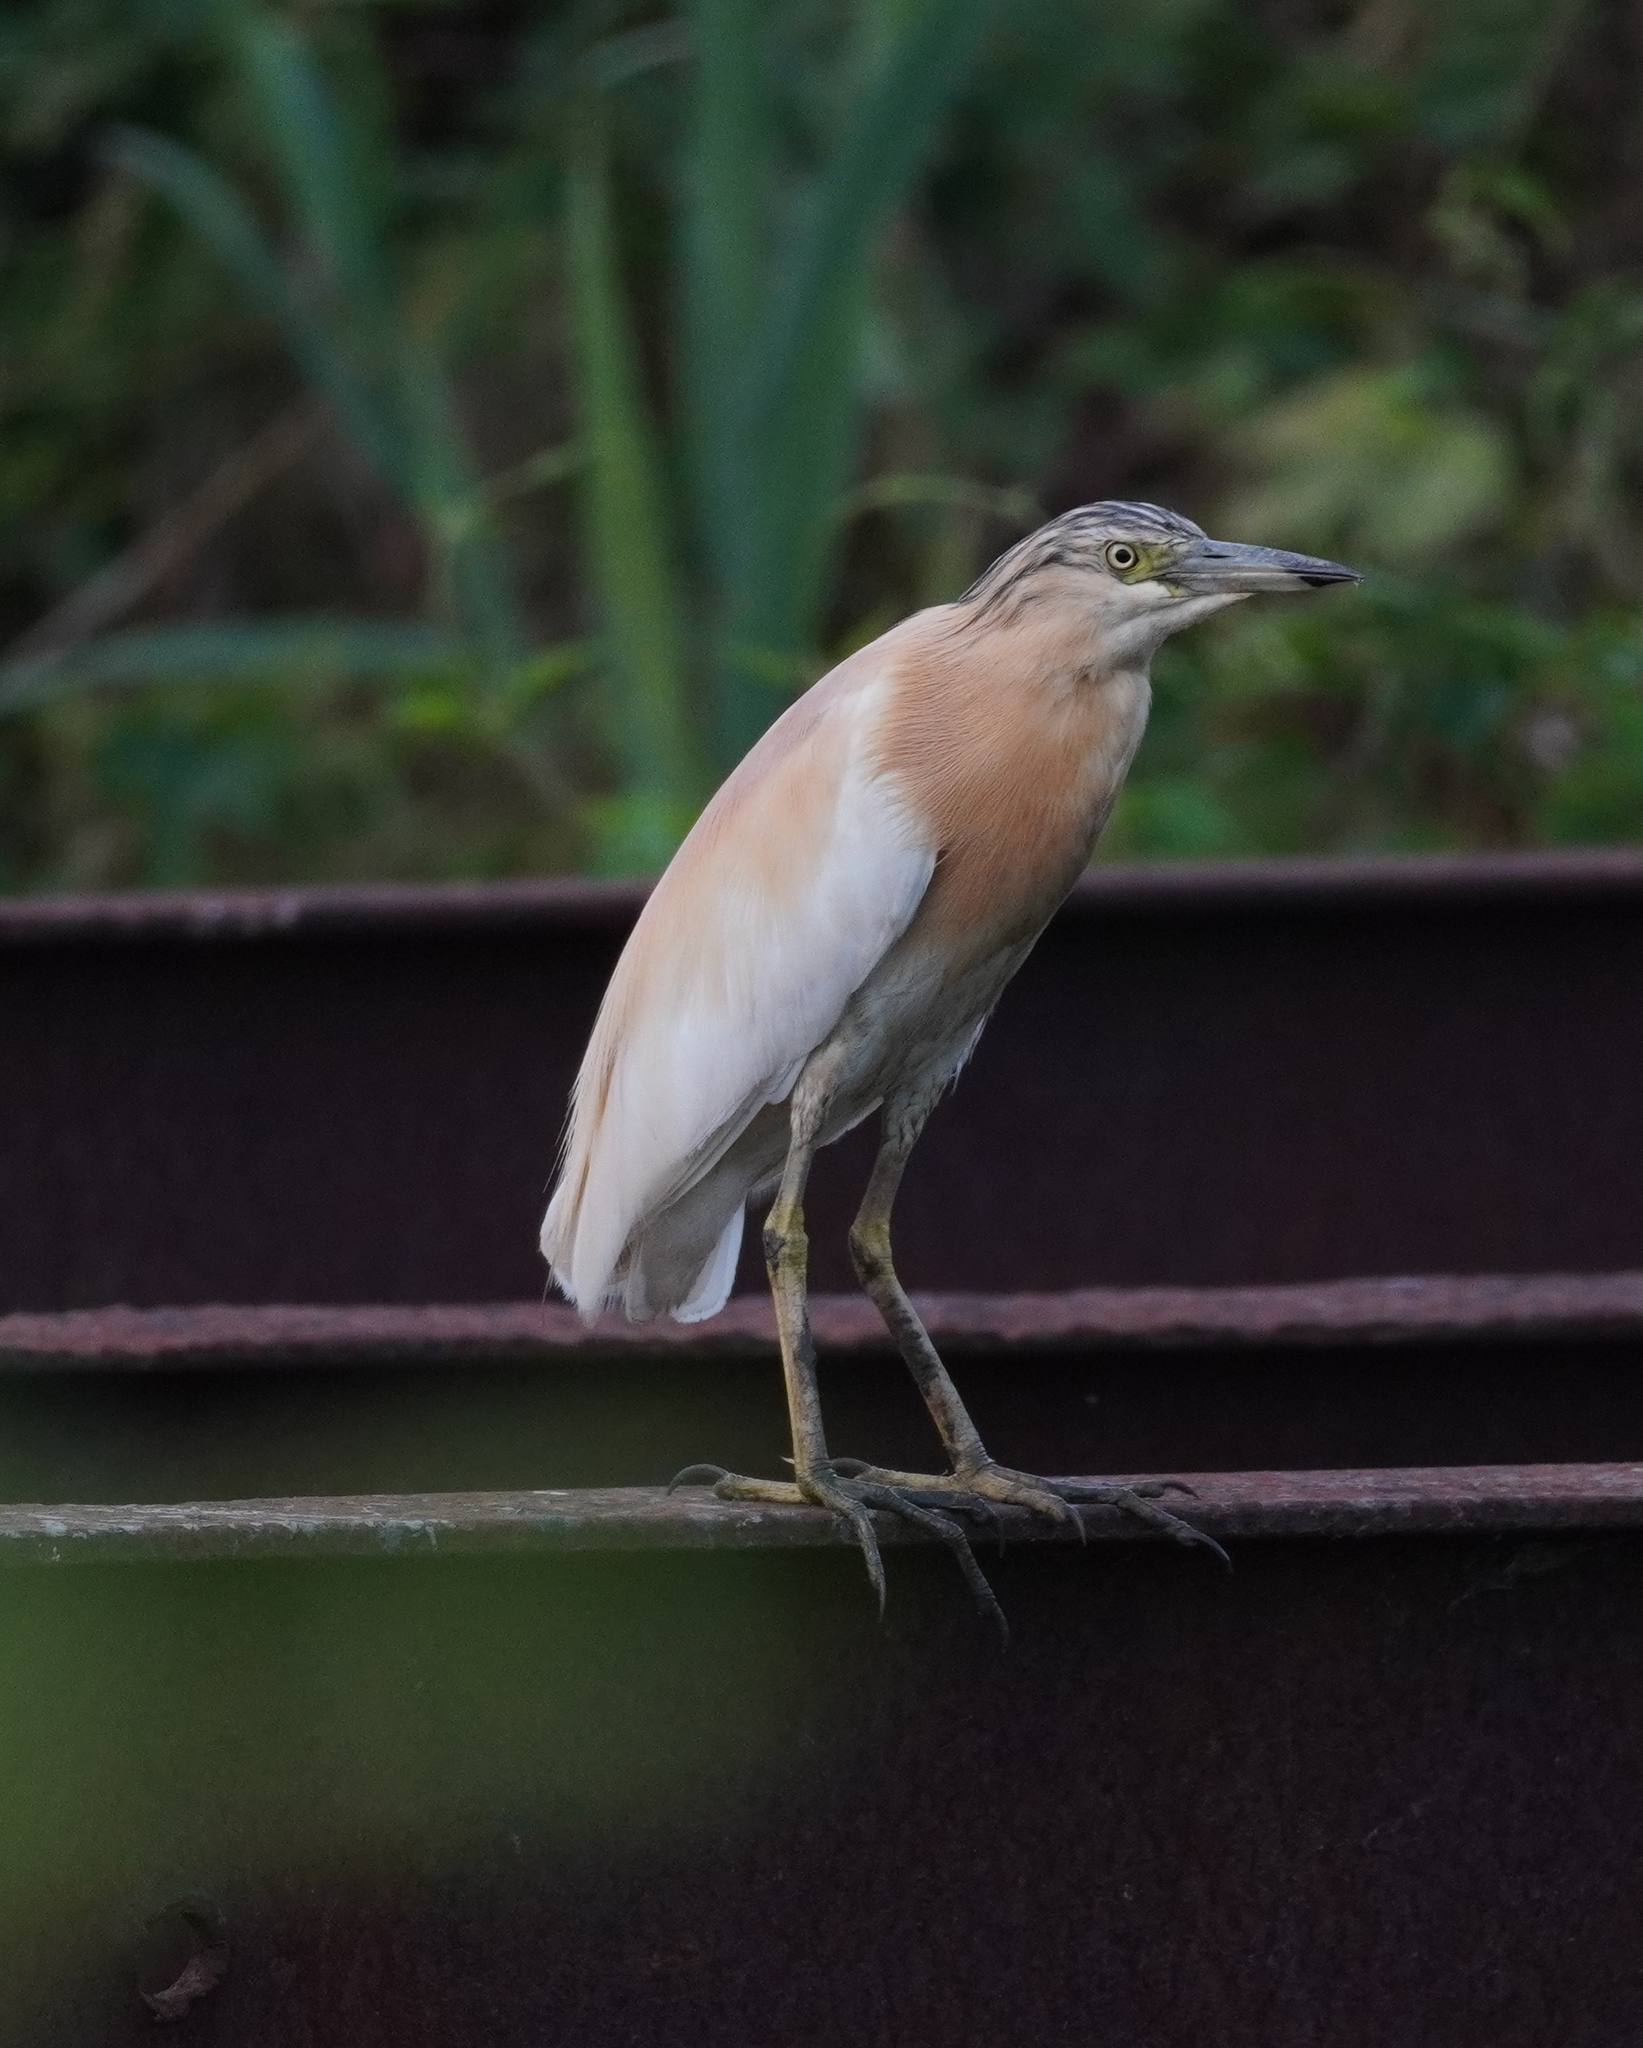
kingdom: Animalia
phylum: Chordata
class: Aves
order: Pelecaniformes
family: Ardeidae
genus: Ardeola
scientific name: Ardeola ralloides
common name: Squacco heron
